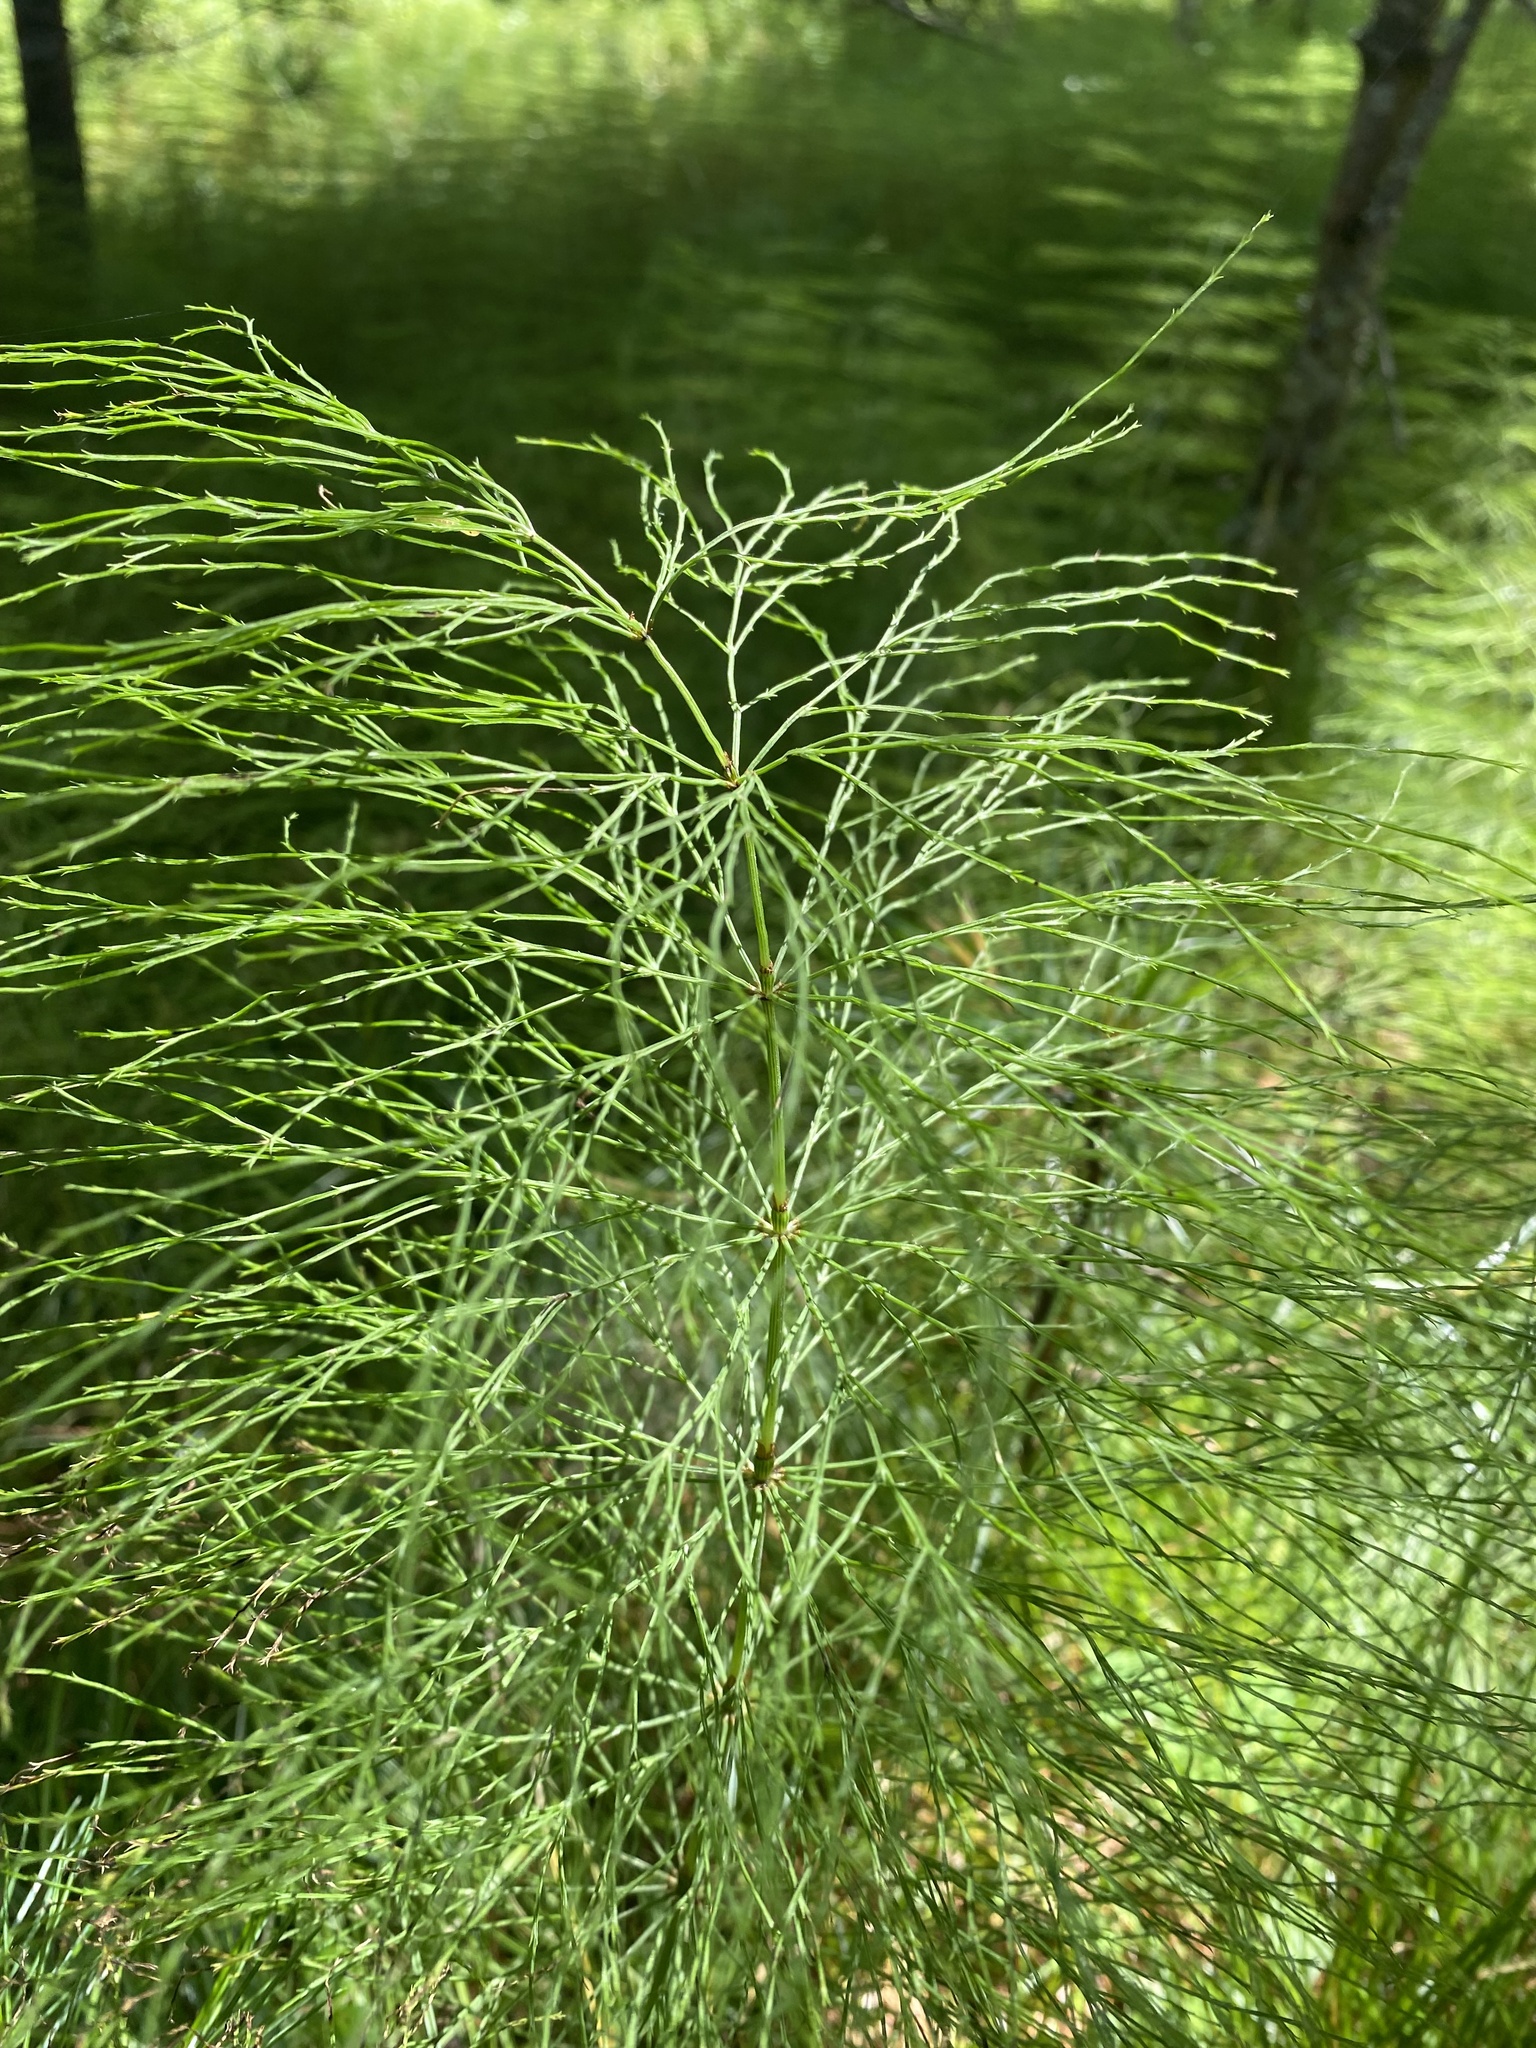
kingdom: Plantae
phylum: Tracheophyta
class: Polypodiopsida
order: Equisetales
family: Equisetaceae
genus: Equisetum
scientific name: Equisetum sylvaticum
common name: Wood horsetail
